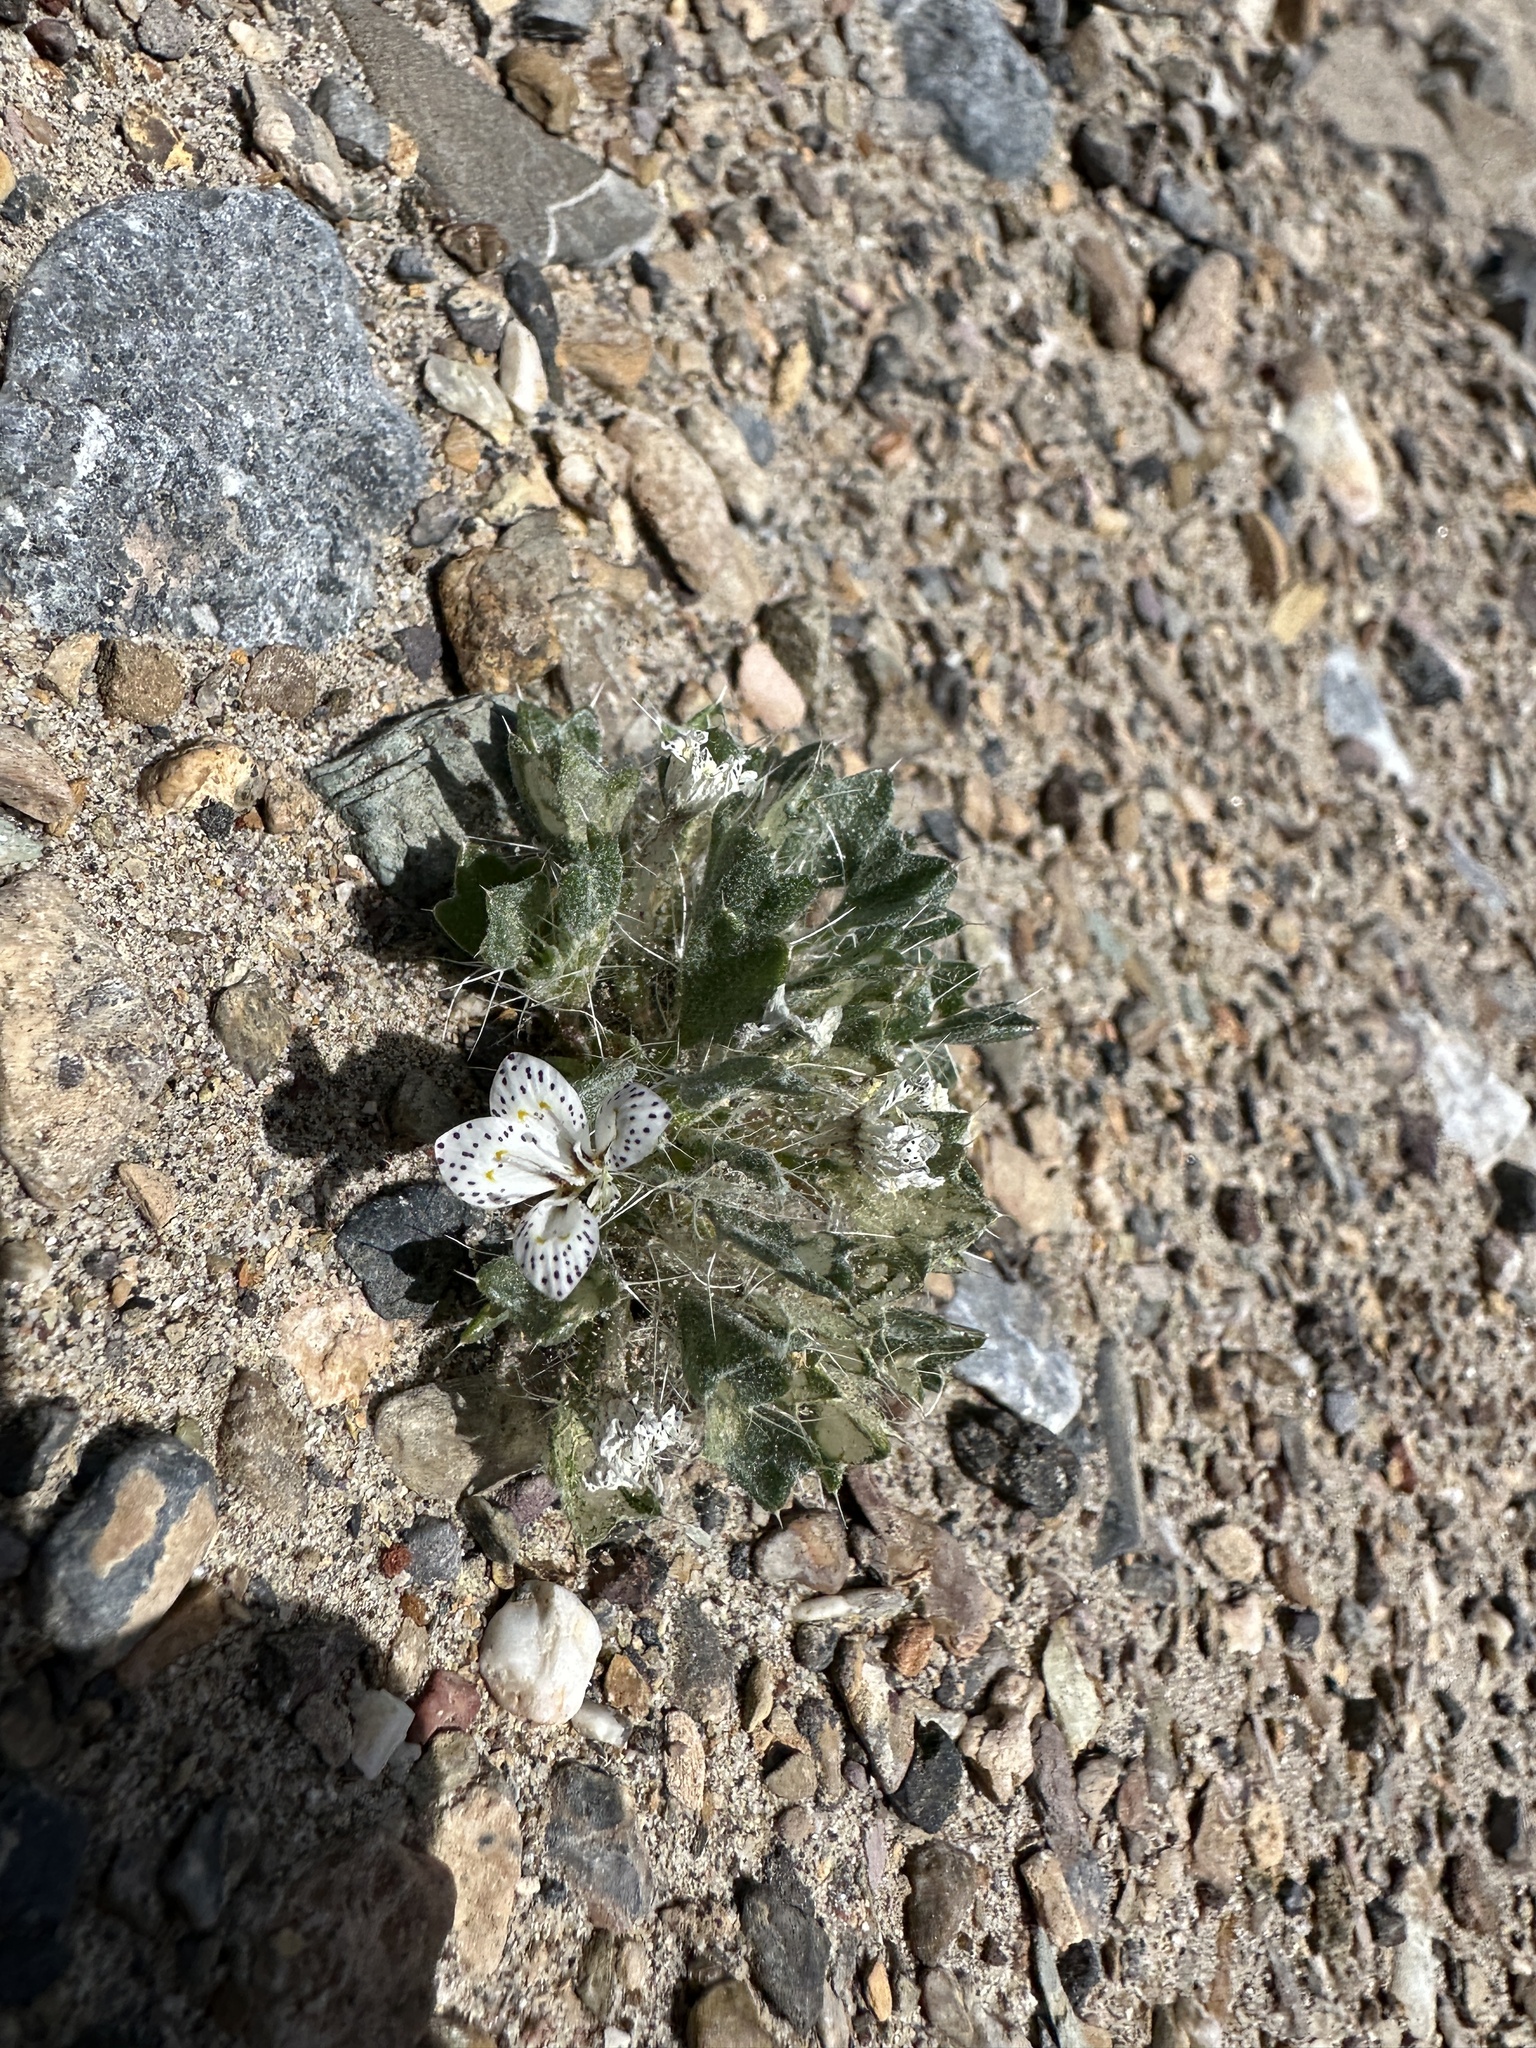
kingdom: Plantae
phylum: Tracheophyta
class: Magnoliopsida
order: Ericales
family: Polemoniaceae
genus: Langloisia
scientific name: Langloisia setosissima
